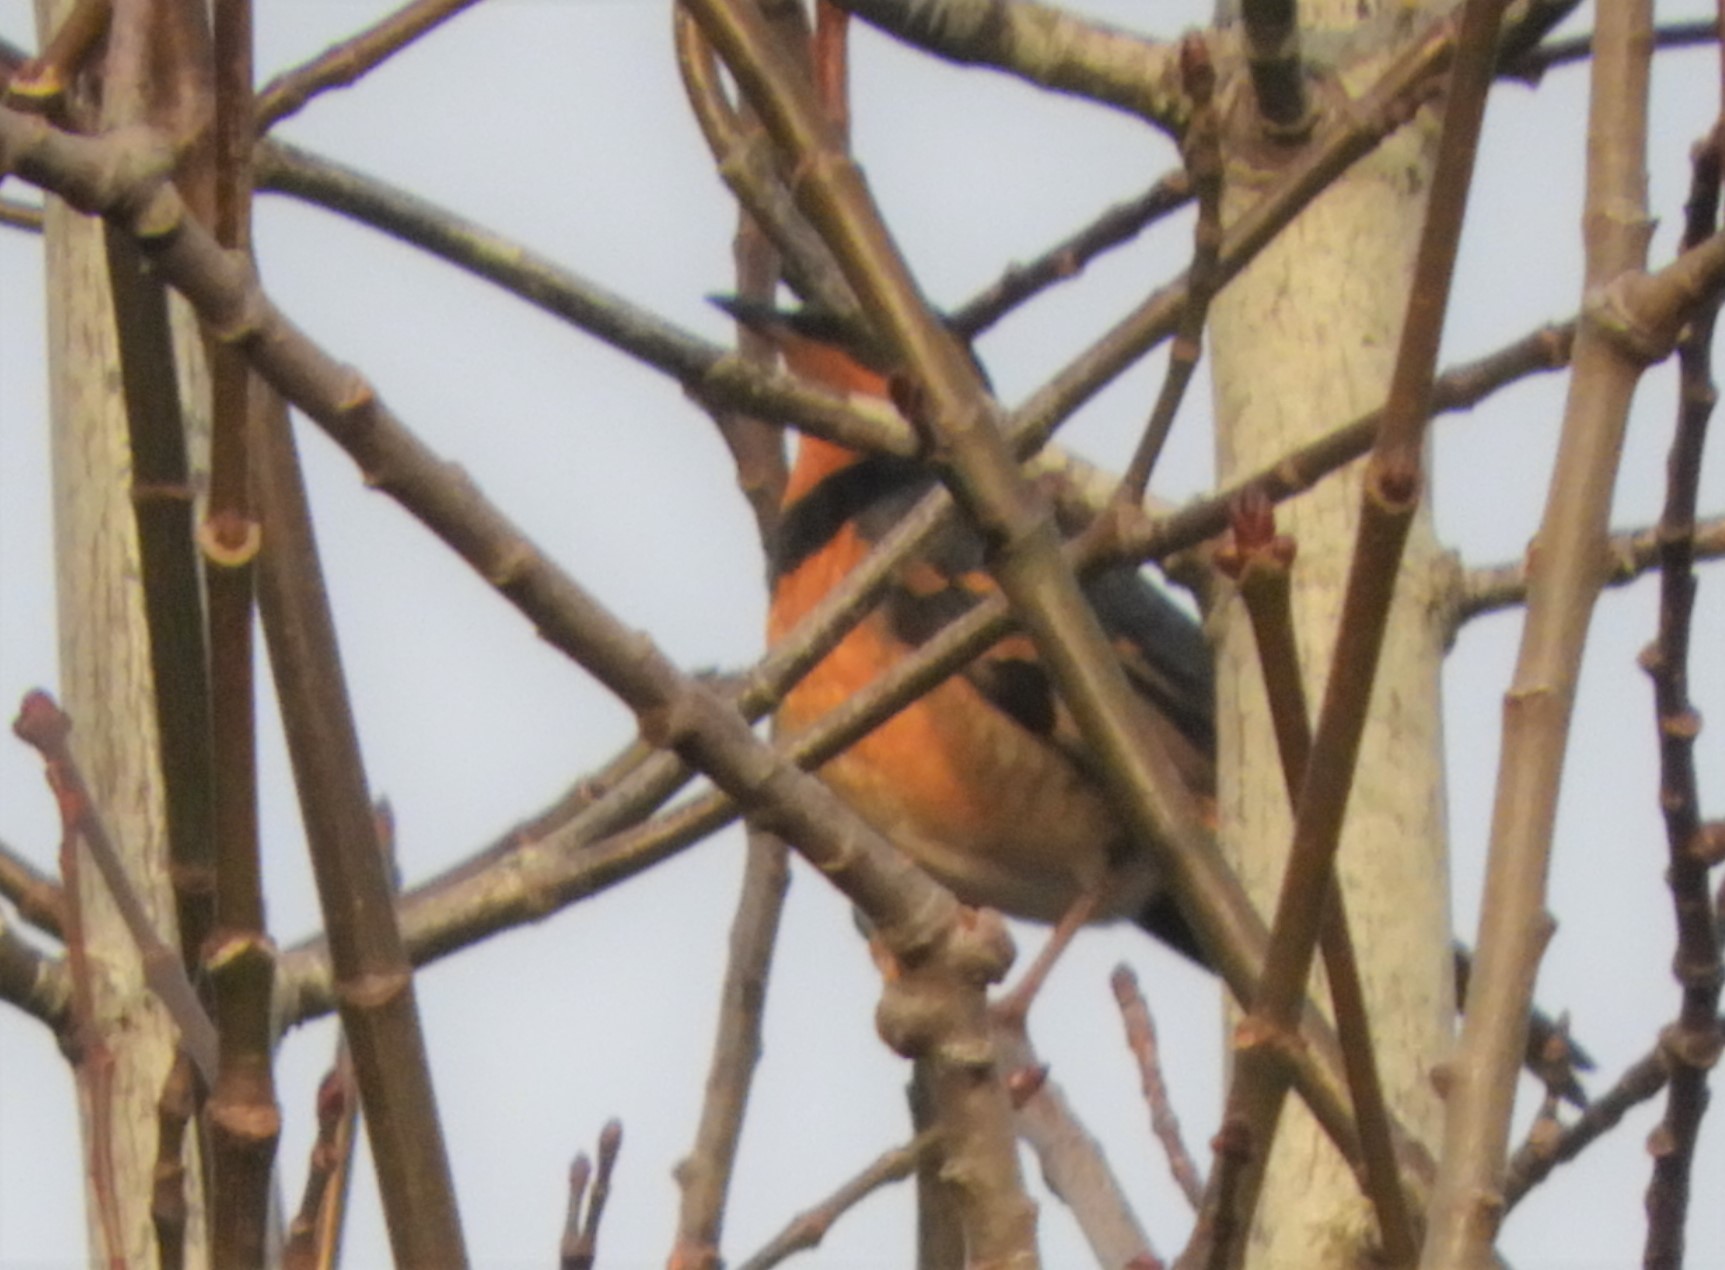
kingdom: Animalia
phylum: Chordata
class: Aves
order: Passeriformes
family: Turdidae
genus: Ixoreus
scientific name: Ixoreus naevius
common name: Varied thrush
